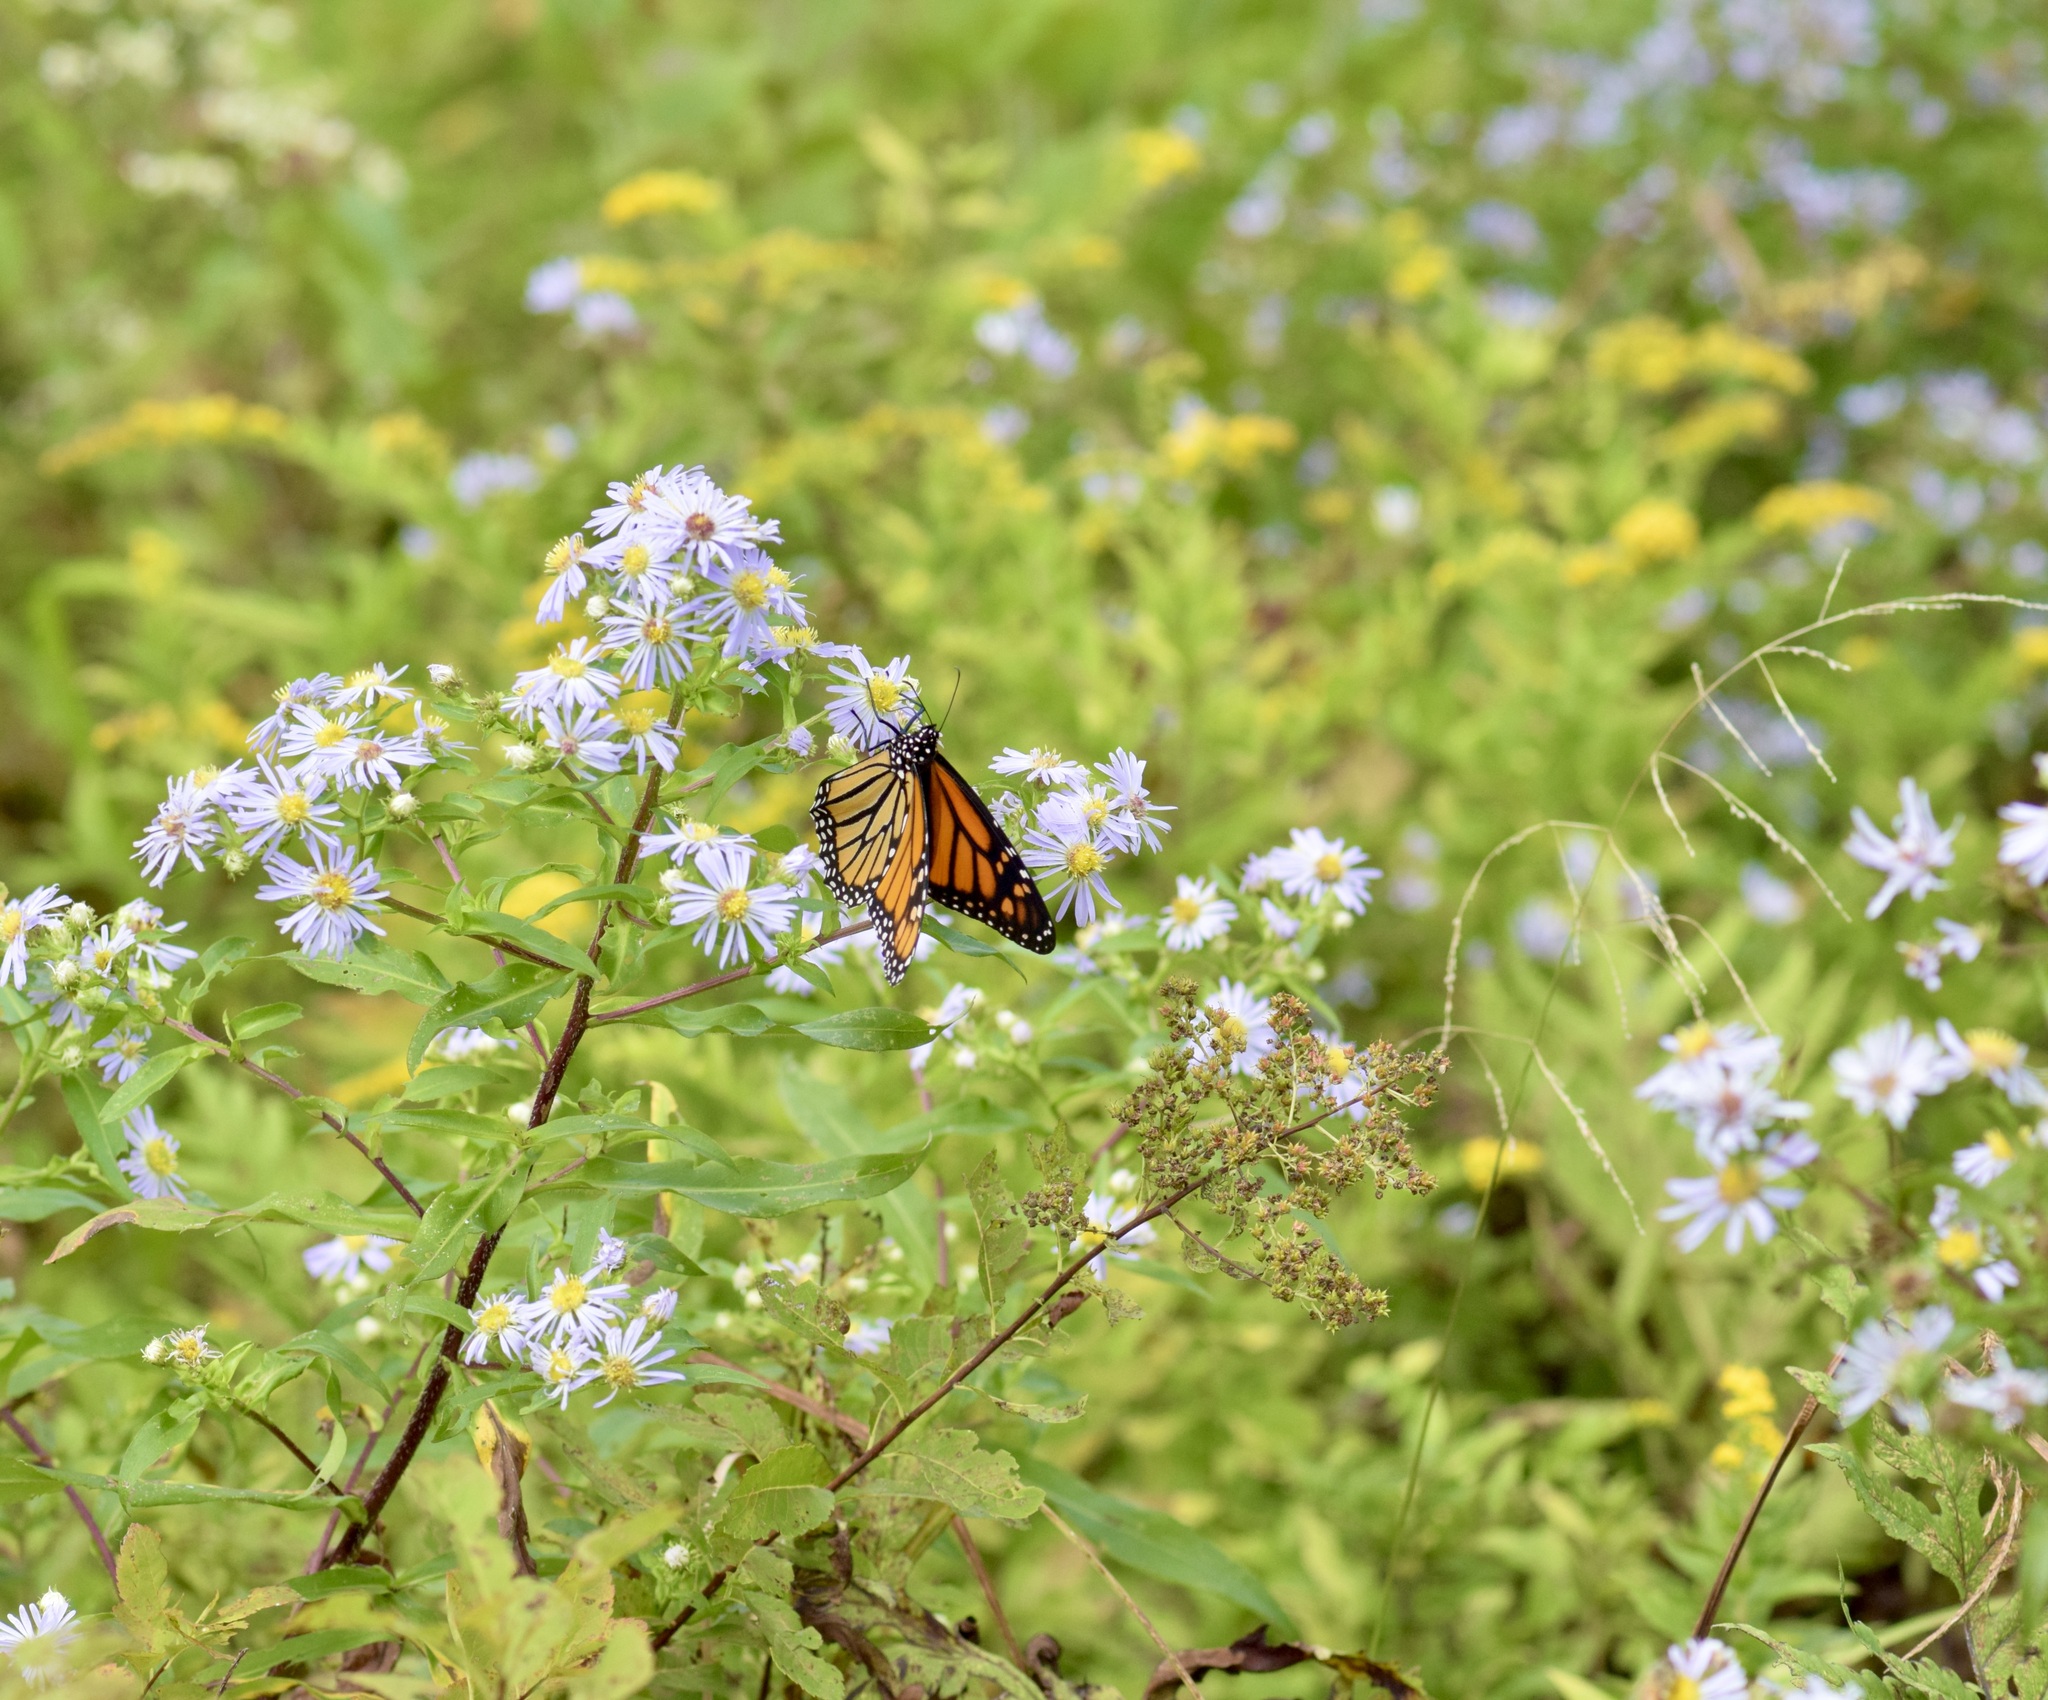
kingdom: Animalia
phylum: Arthropoda
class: Insecta
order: Lepidoptera
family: Nymphalidae
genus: Danaus
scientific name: Danaus plexippus
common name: Monarch
